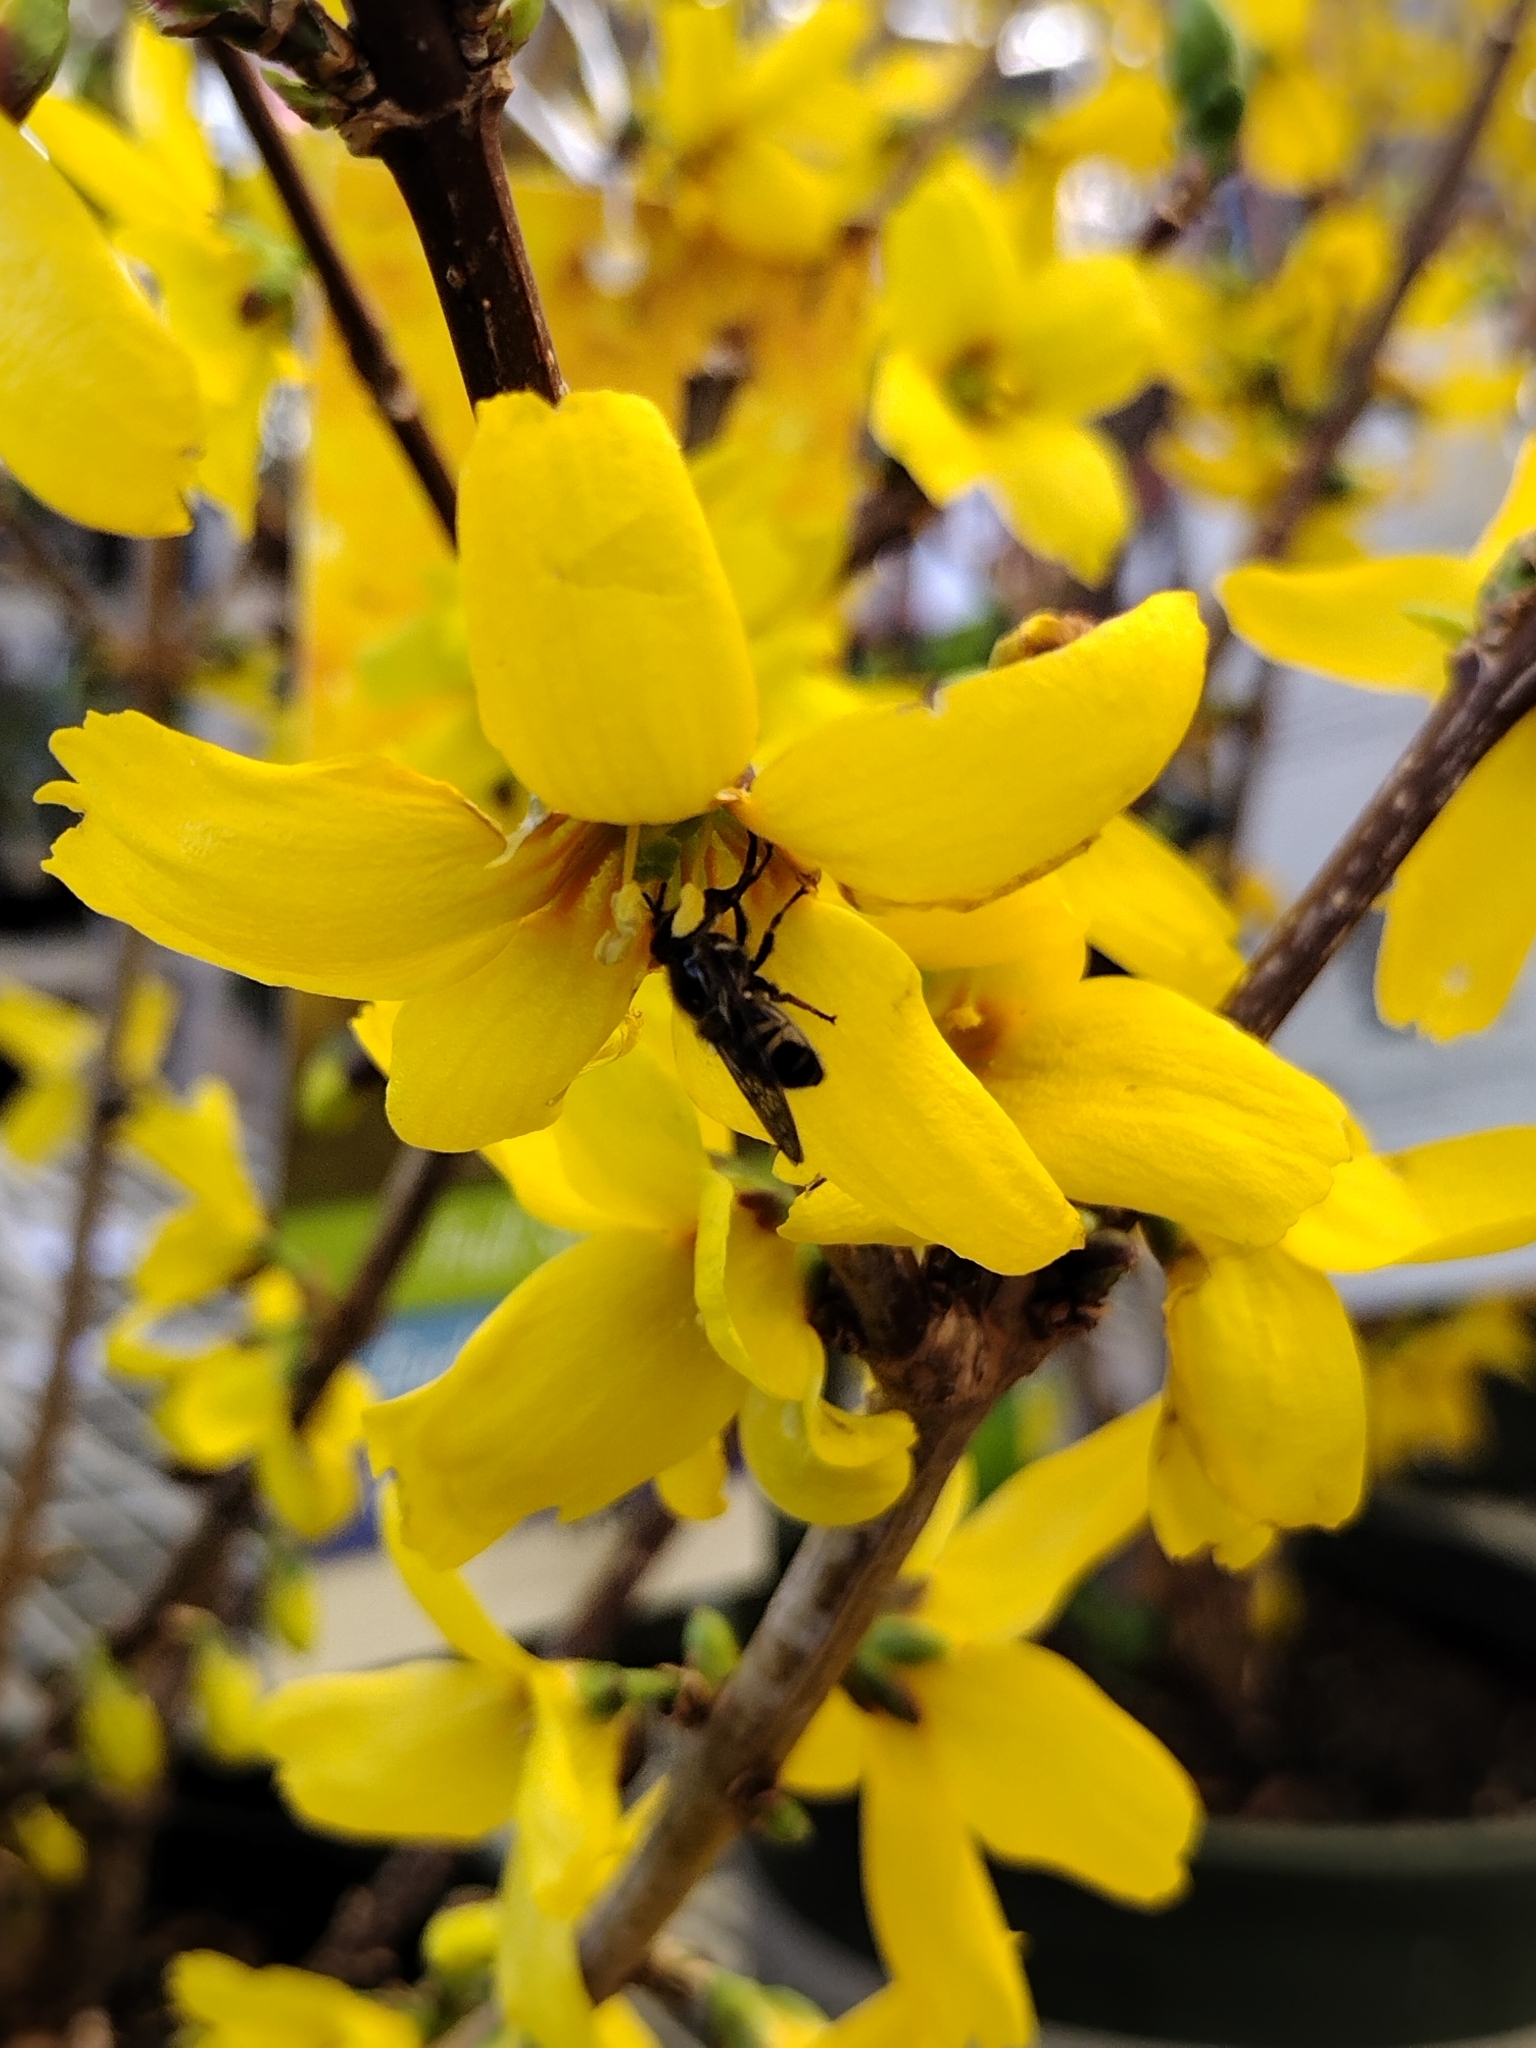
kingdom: Animalia
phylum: Arthropoda
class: Insecta
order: Diptera
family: Syrphidae
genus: Copestylum
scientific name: Copestylum fraudulentum
